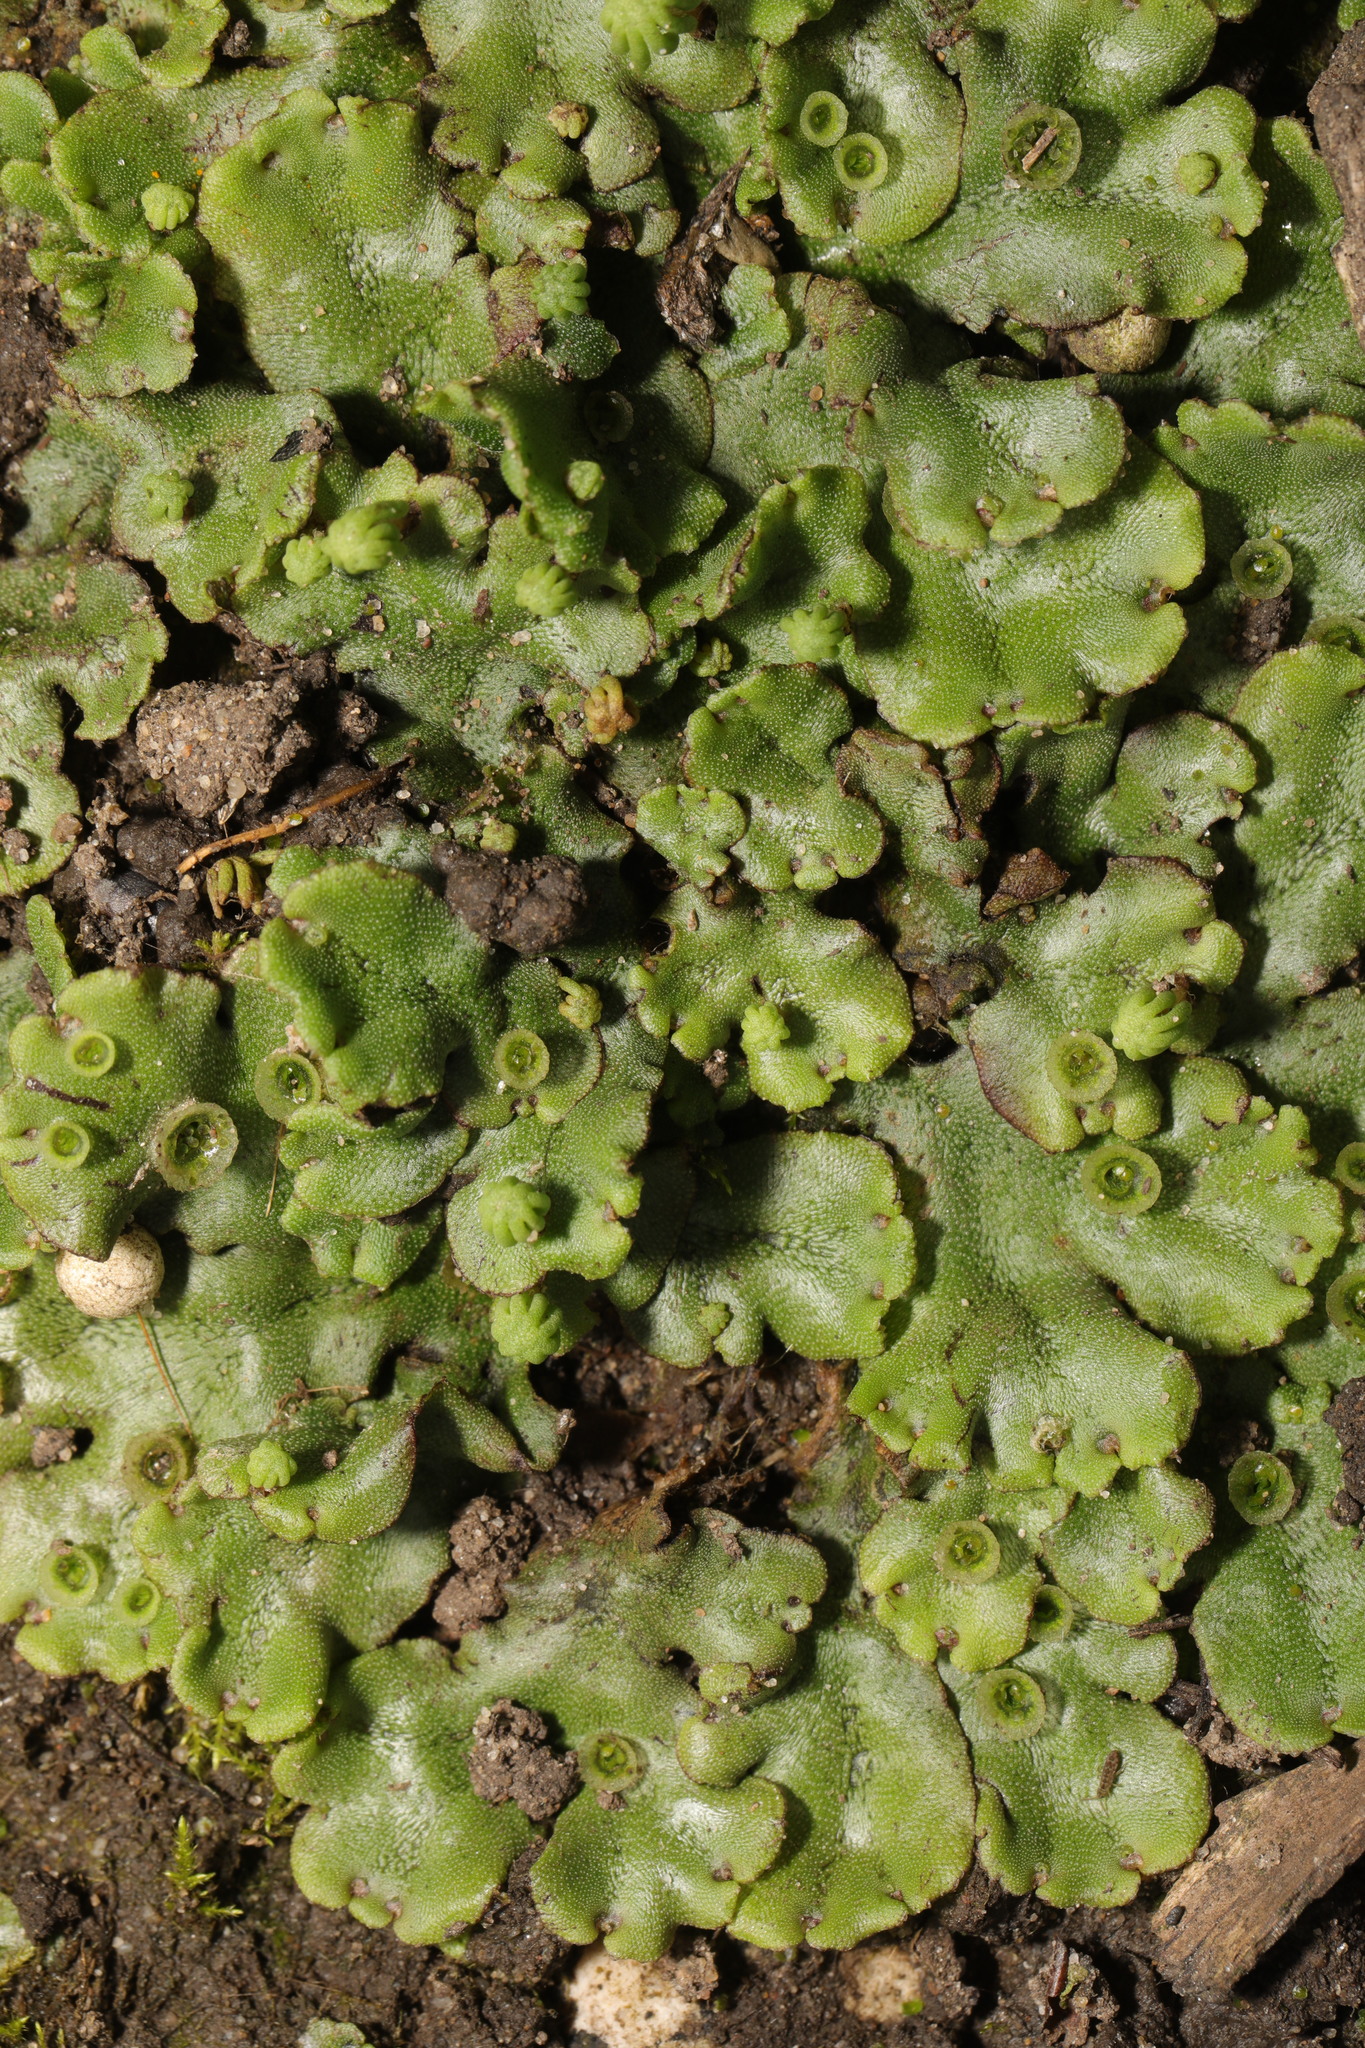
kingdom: Plantae
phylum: Marchantiophyta
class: Marchantiopsida
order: Marchantiales
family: Marchantiaceae
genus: Marchantia
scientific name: Marchantia polymorpha
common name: Common liverwort
